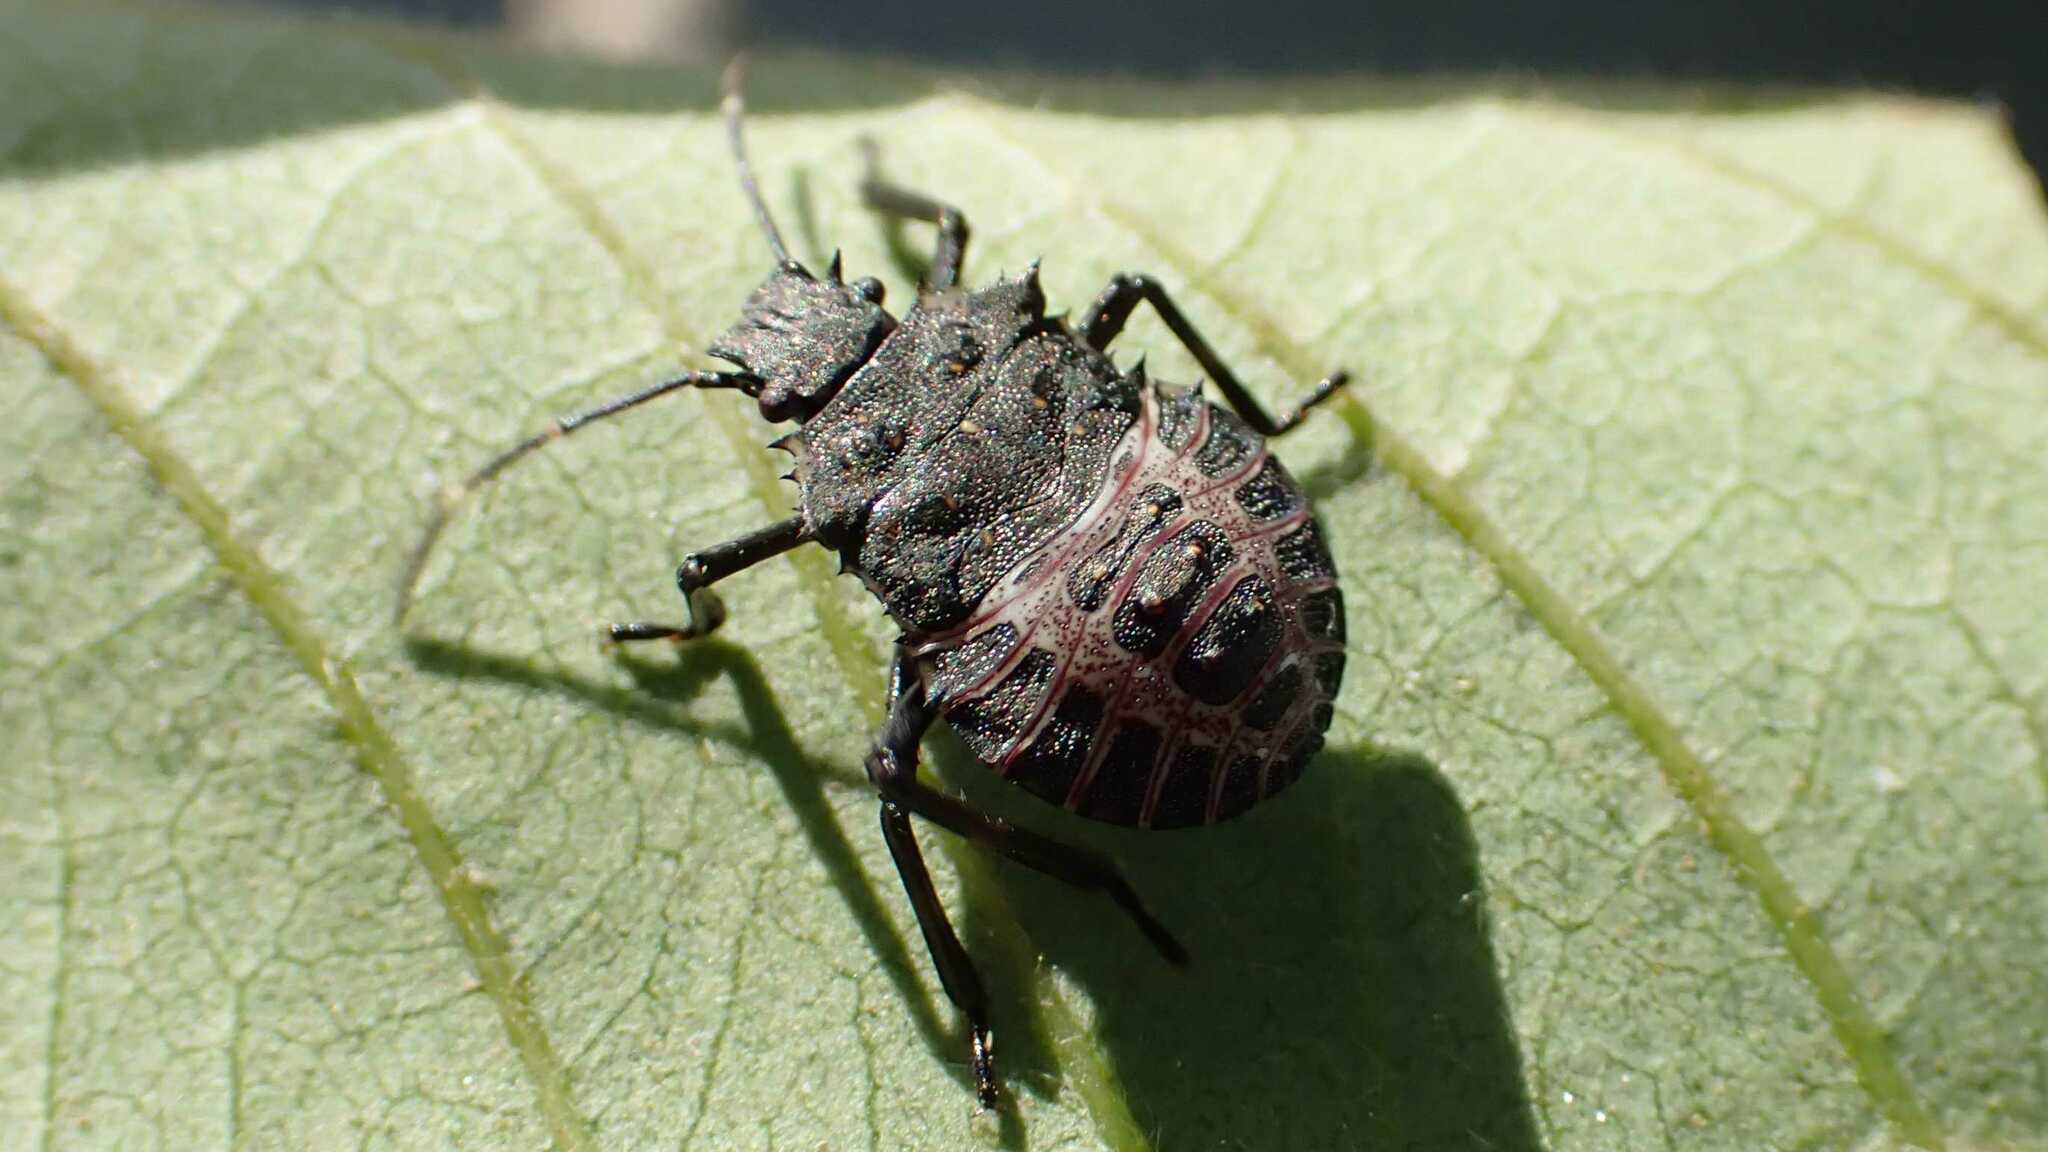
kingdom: Animalia
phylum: Arthropoda
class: Insecta
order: Hemiptera
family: Pentatomidae
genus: Halyomorpha
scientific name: Halyomorpha halys
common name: Brown marmorated stink bug
